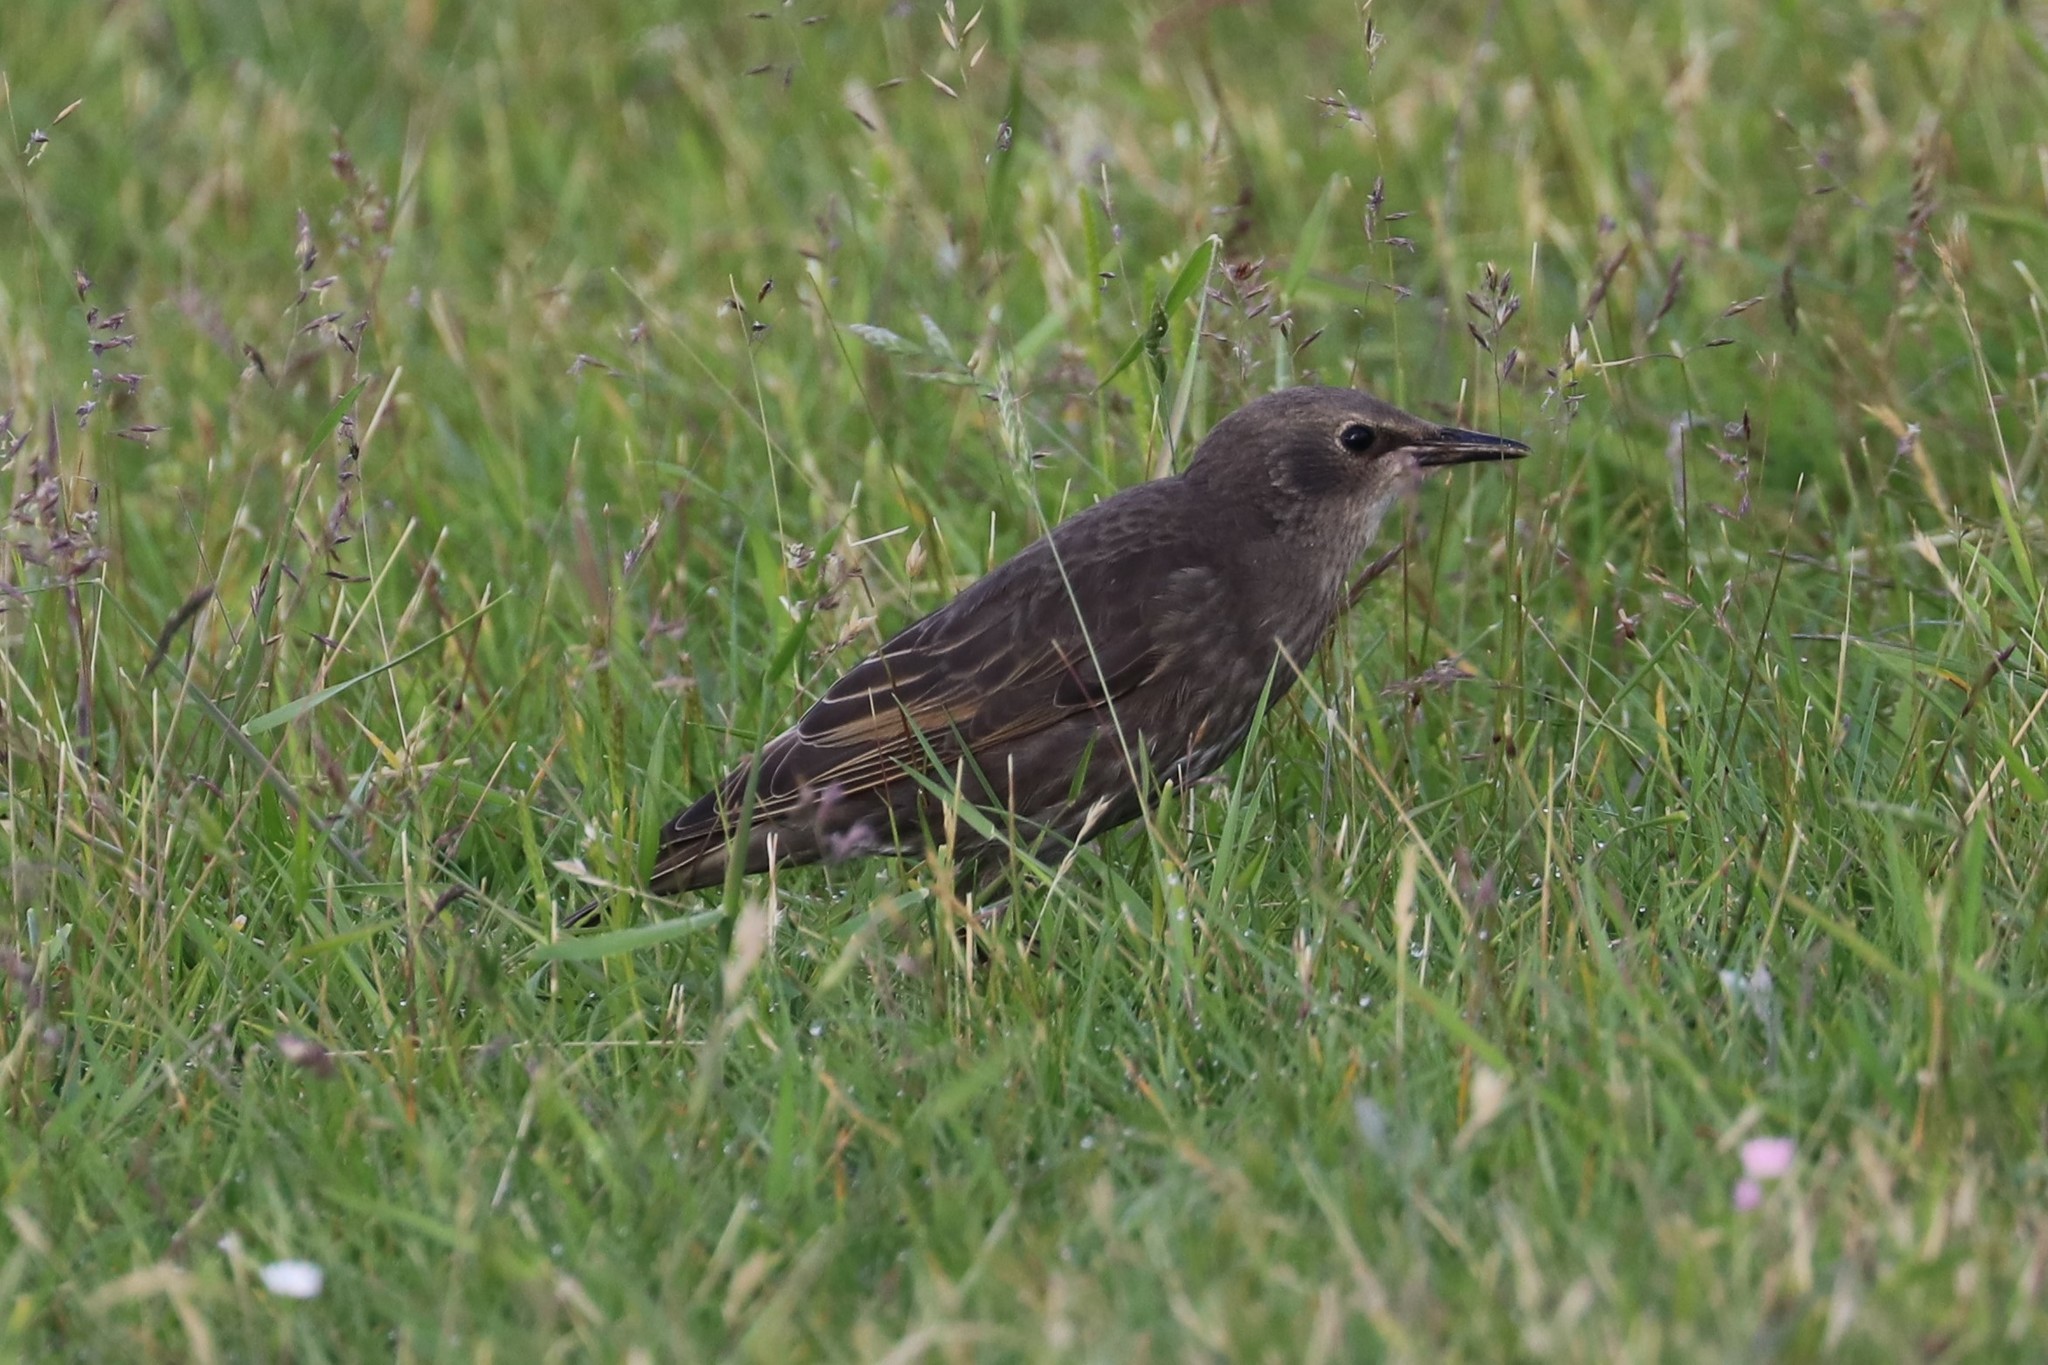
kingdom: Animalia
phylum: Chordata
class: Aves
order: Passeriformes
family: Sturnidae
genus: Sturnus
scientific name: Sturnus vulgaris
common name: Common starling
